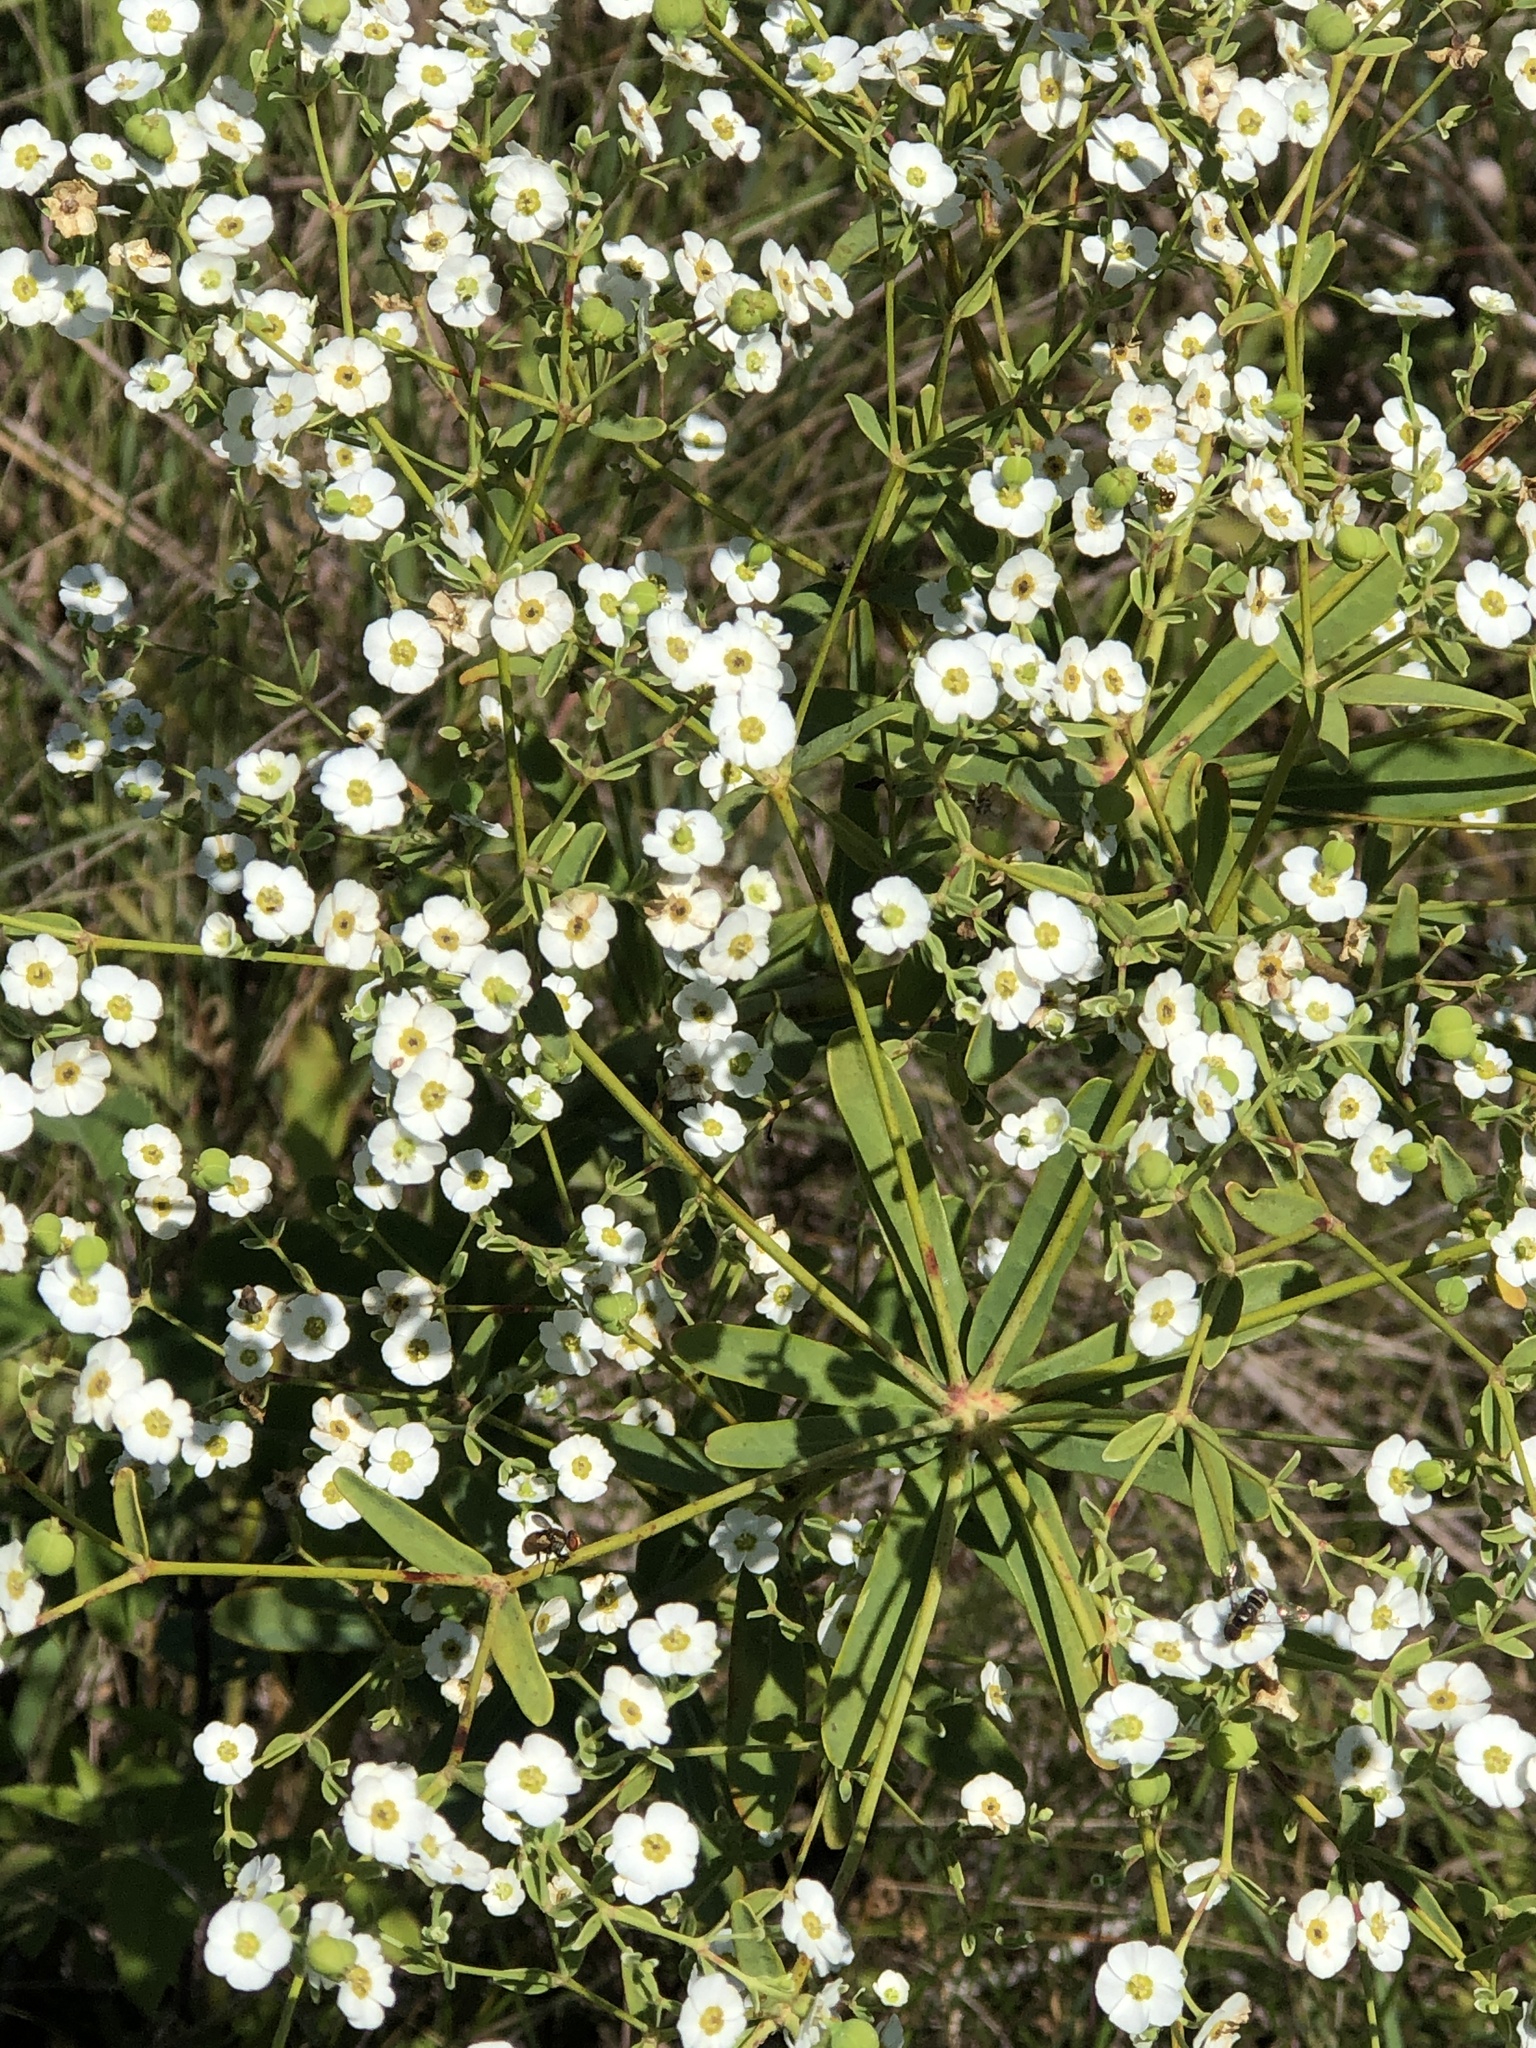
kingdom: Plantae
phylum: Tracheophyta
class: Magnoliopsida
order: Malpighiales
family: Euphorbiaceae
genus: Euphorbia
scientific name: Euphorbia corollata
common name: Flowering spurge
